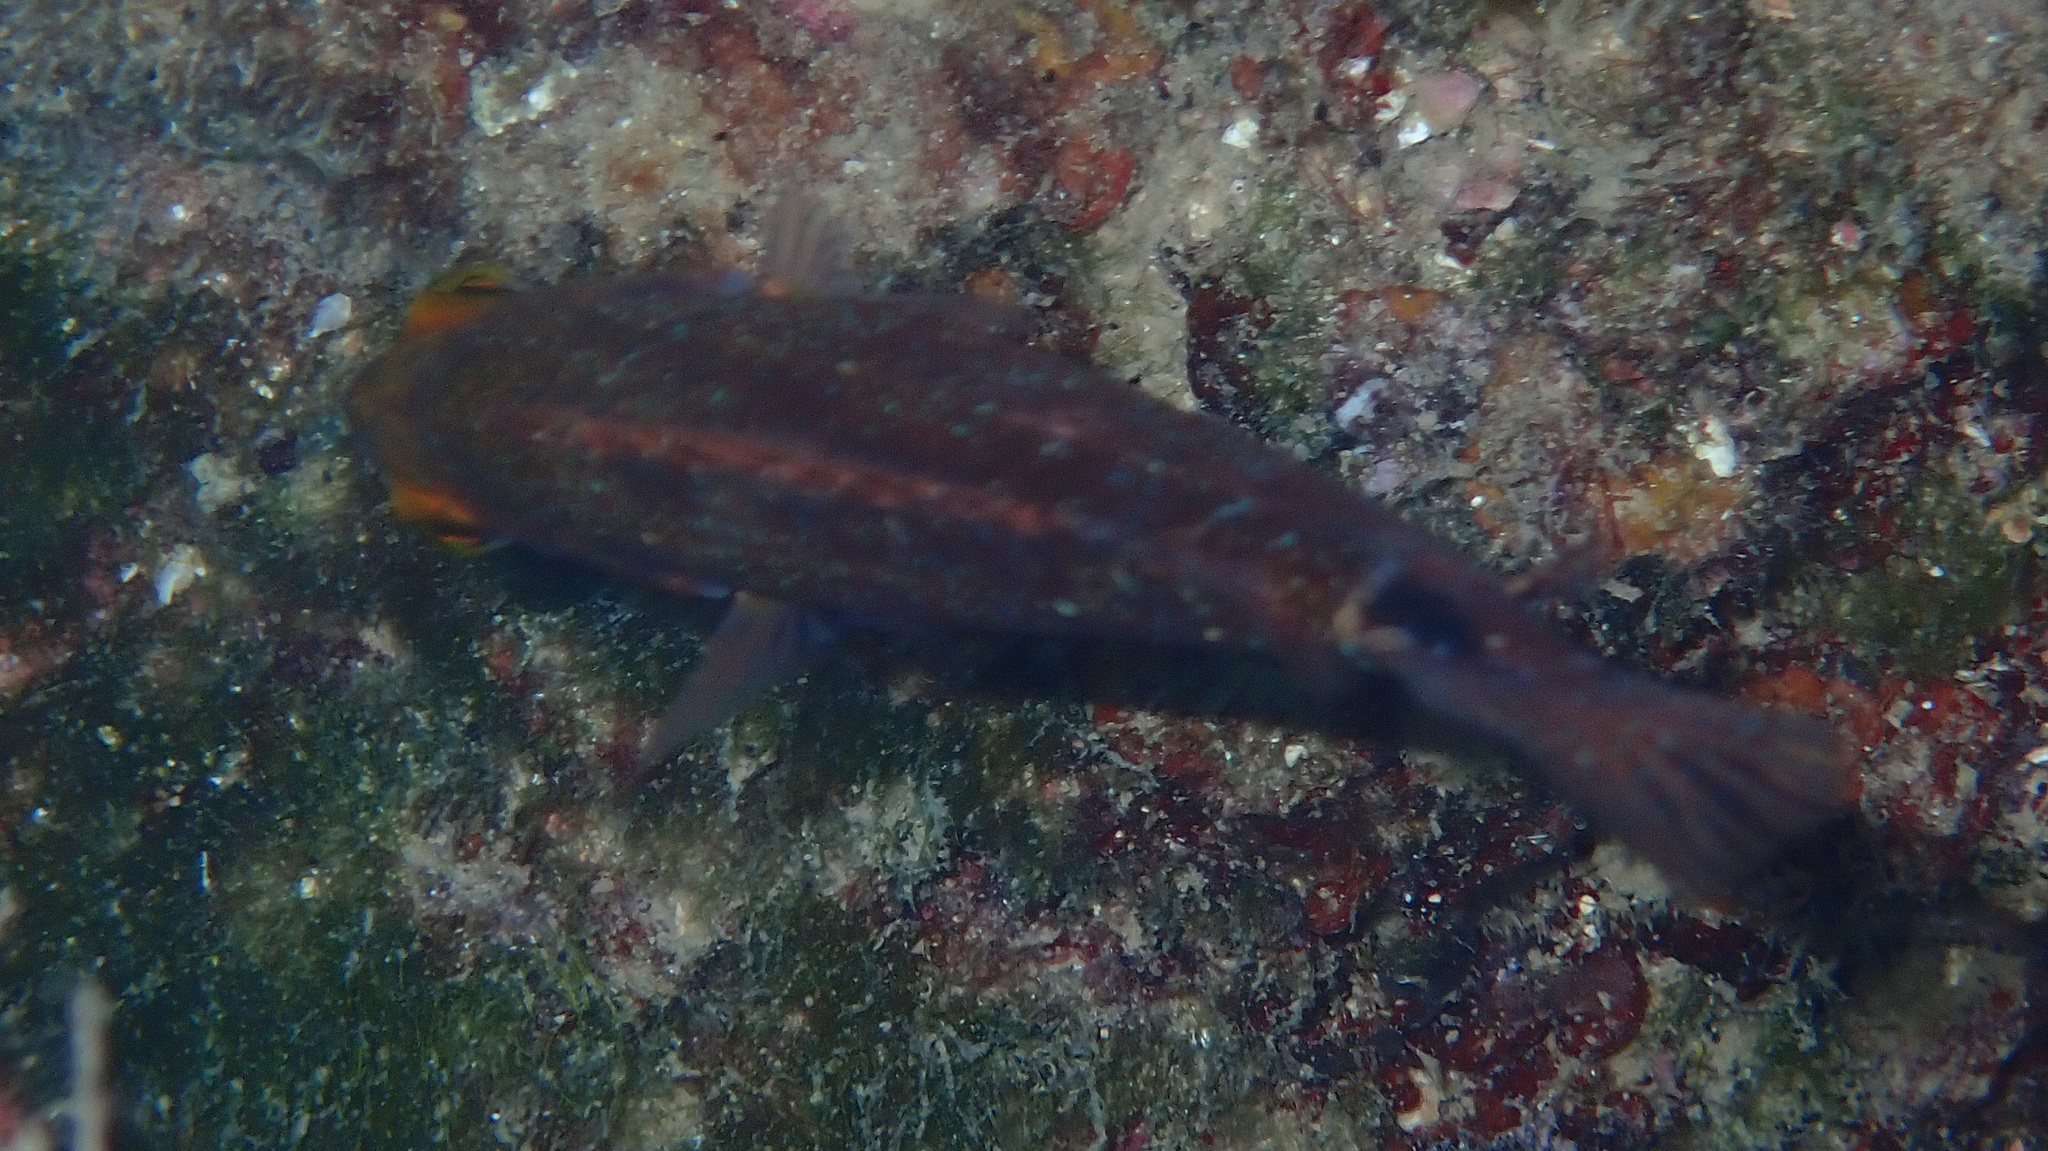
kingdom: Animalia
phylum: Chordata
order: Perciformes
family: Labridae
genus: Symphodus
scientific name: Symphodus mediterraneus
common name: Axillary wrasse
